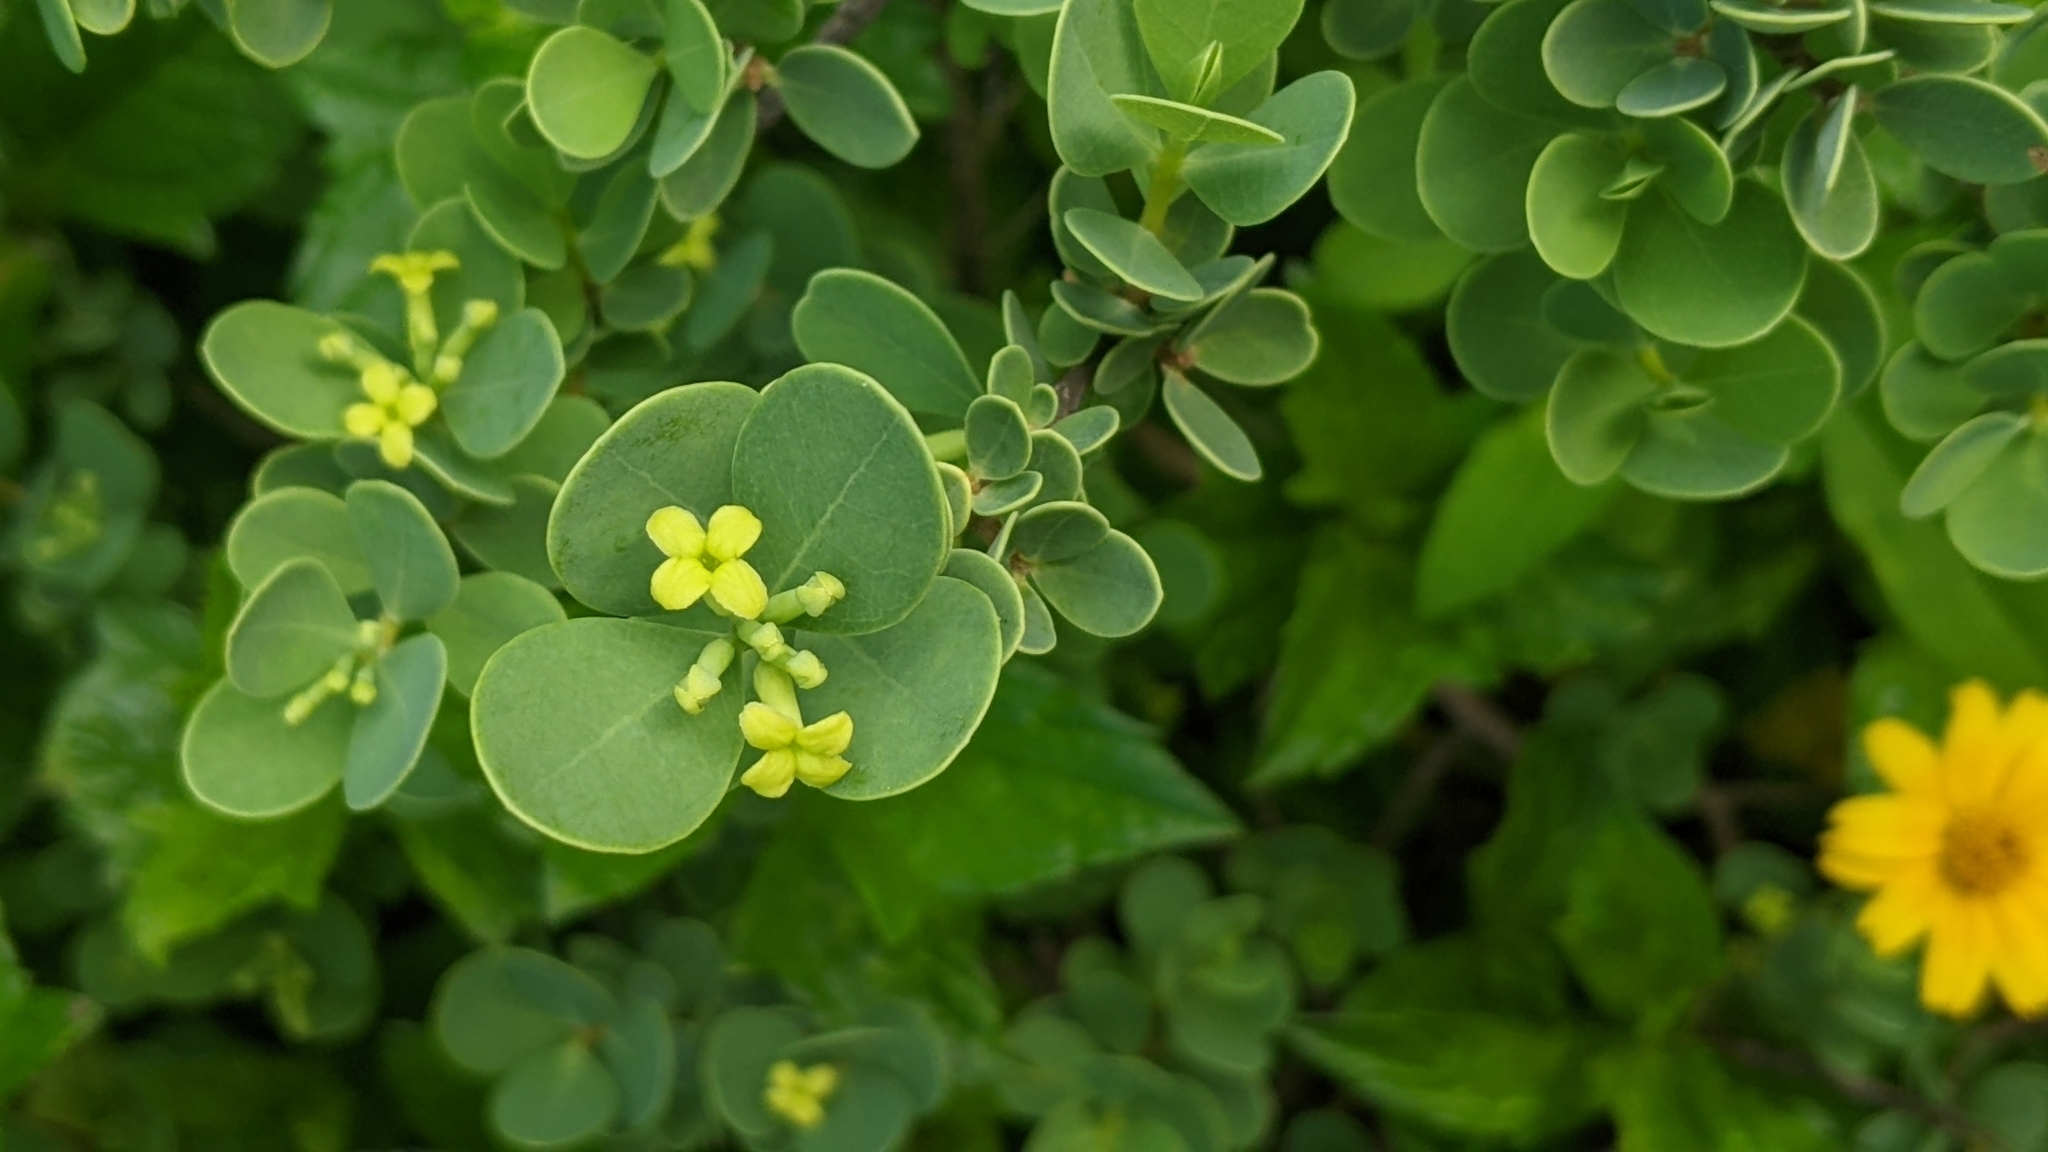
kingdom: Plantae
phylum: Tracheophyta
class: Magnoliopsida
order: Malvales
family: Thymelaeaceae
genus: Wikstroemia
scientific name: Wikstroemia uva-ursi
